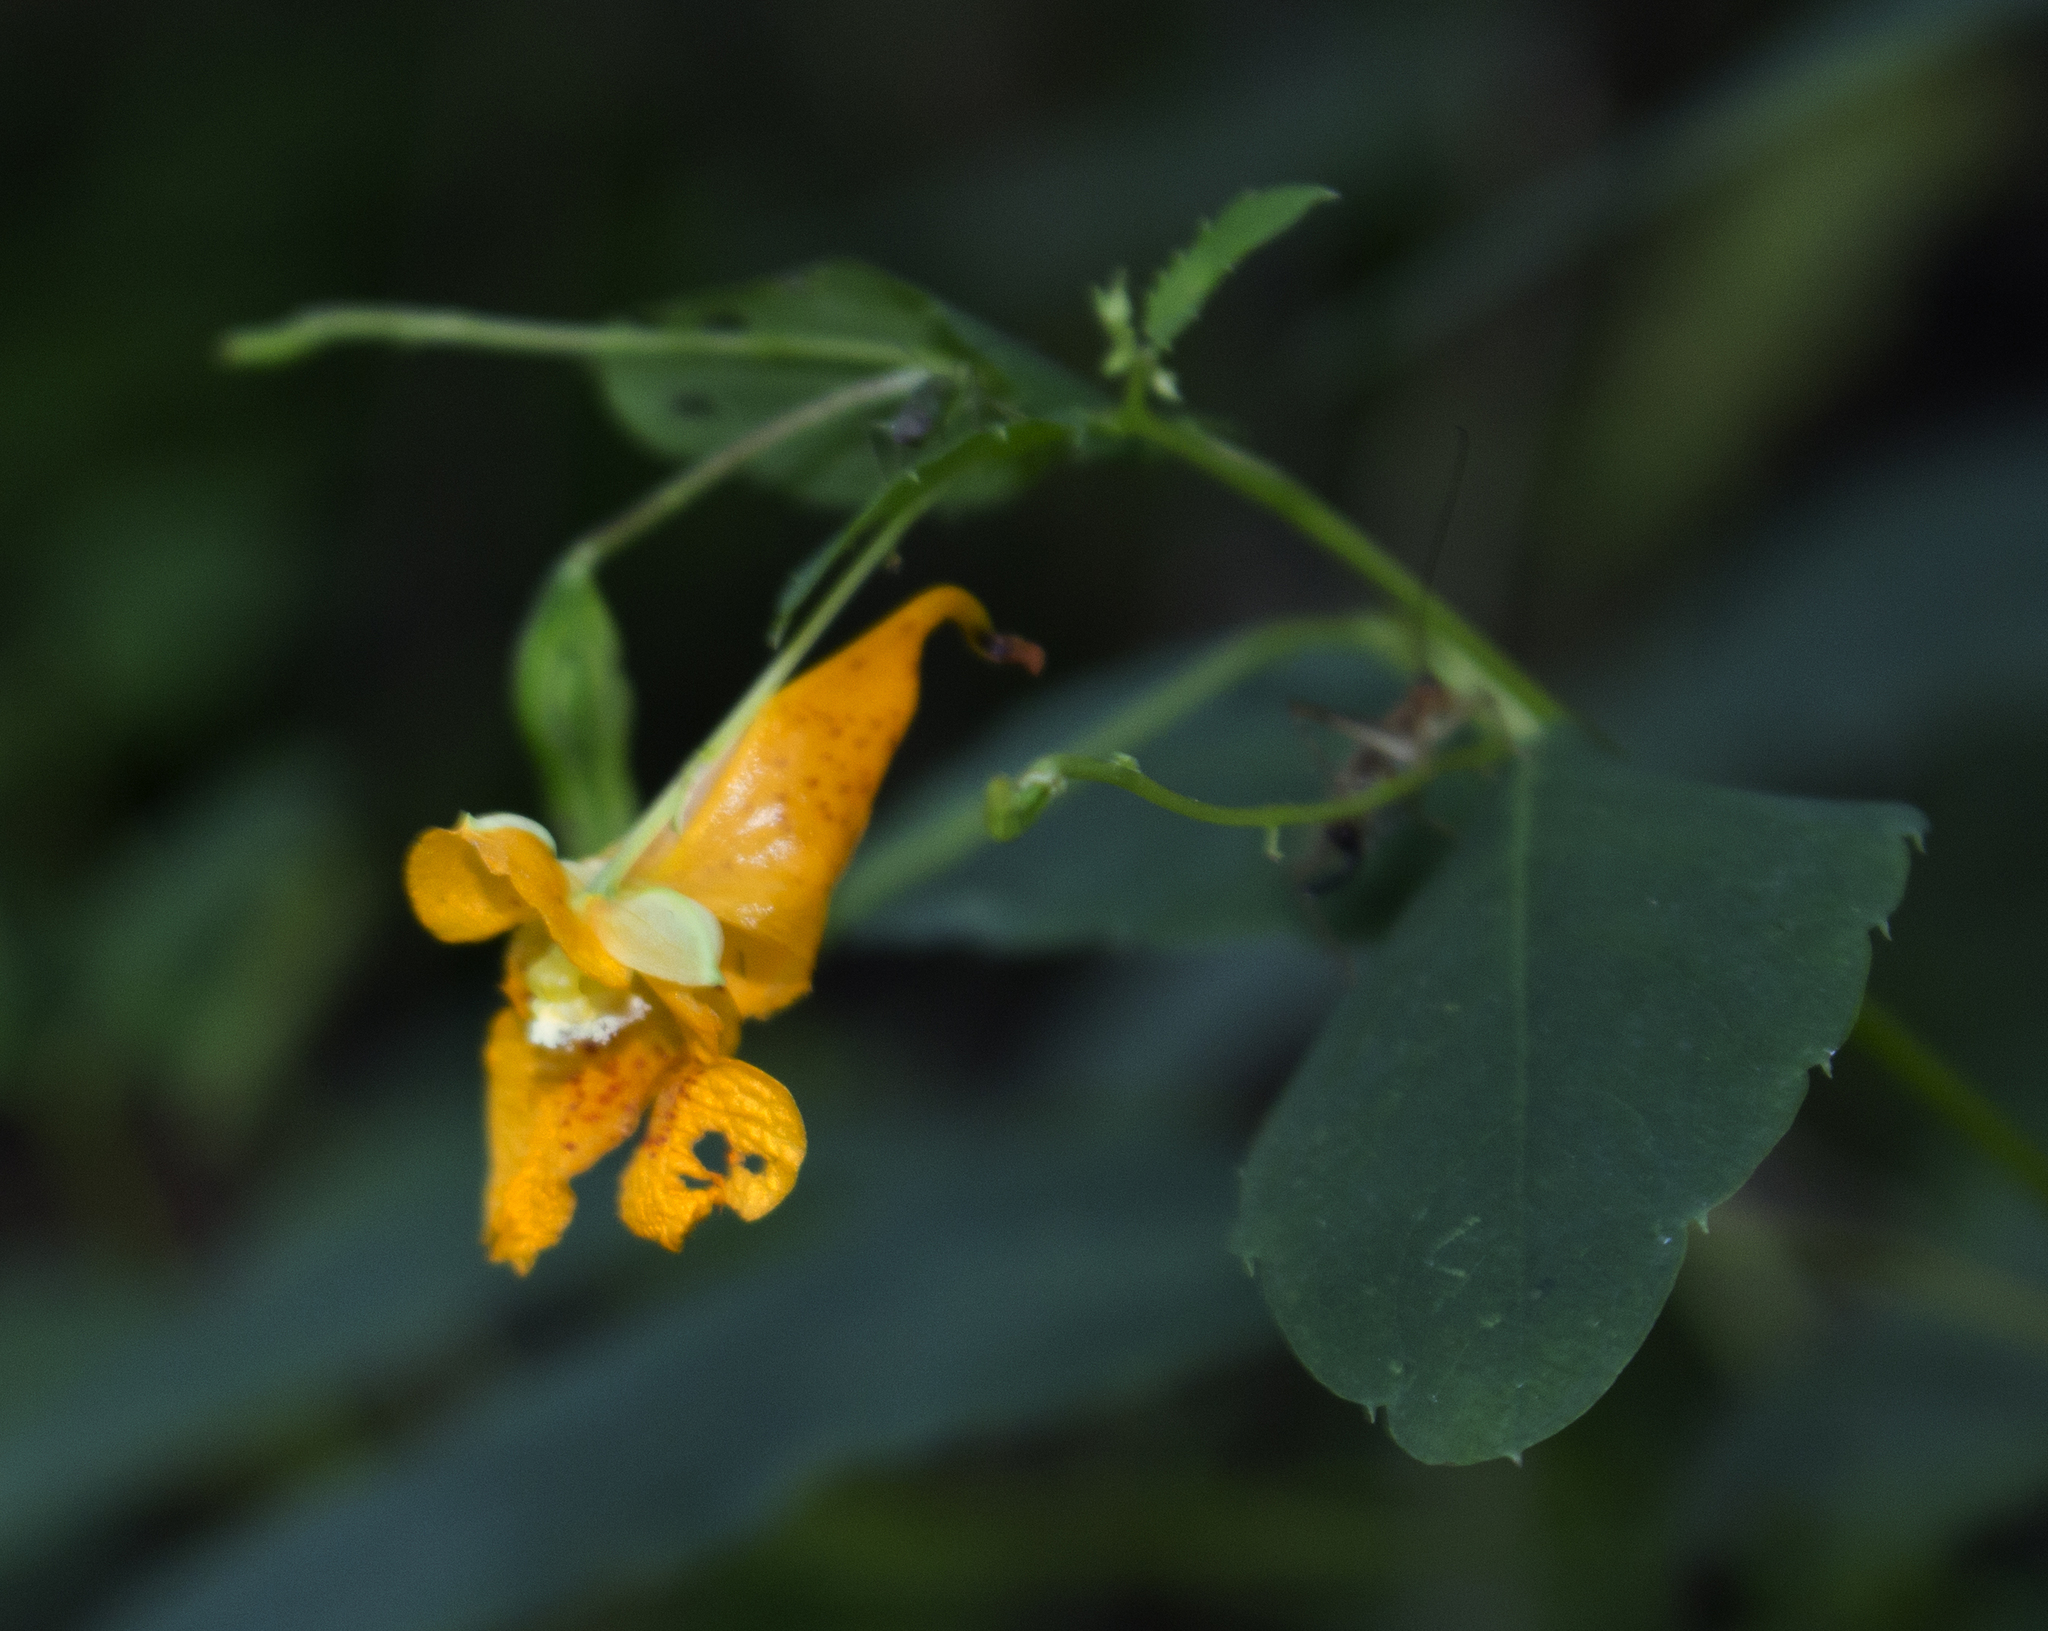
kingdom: Plantae
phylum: Tracheophyta
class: Magnoliopsida
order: Ericales
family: Balsaminaceae
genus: Impatiens
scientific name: Impatiens capensis
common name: Orange balsam
